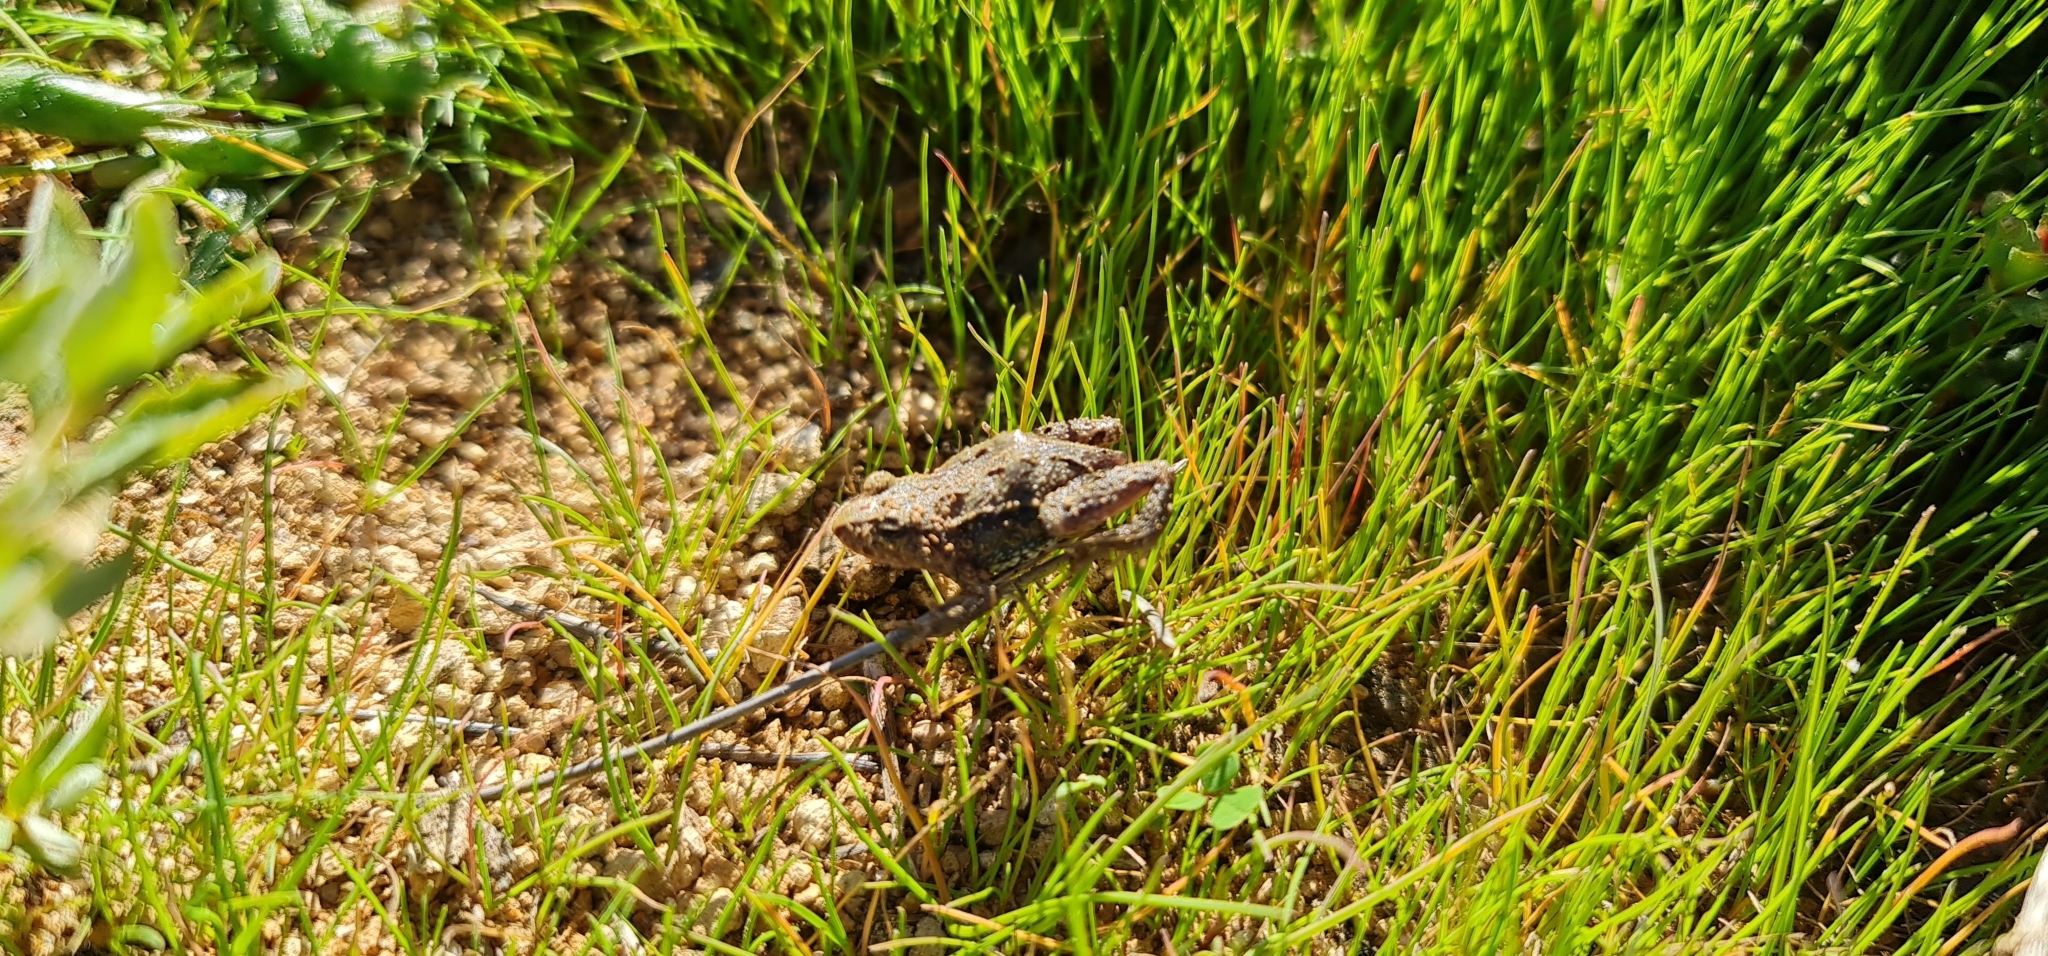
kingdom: Animalia
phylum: Chordata
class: Amphibia
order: Anura
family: Myobatrachidae
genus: Crinia
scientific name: Crinia signifera
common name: Brown froglet
